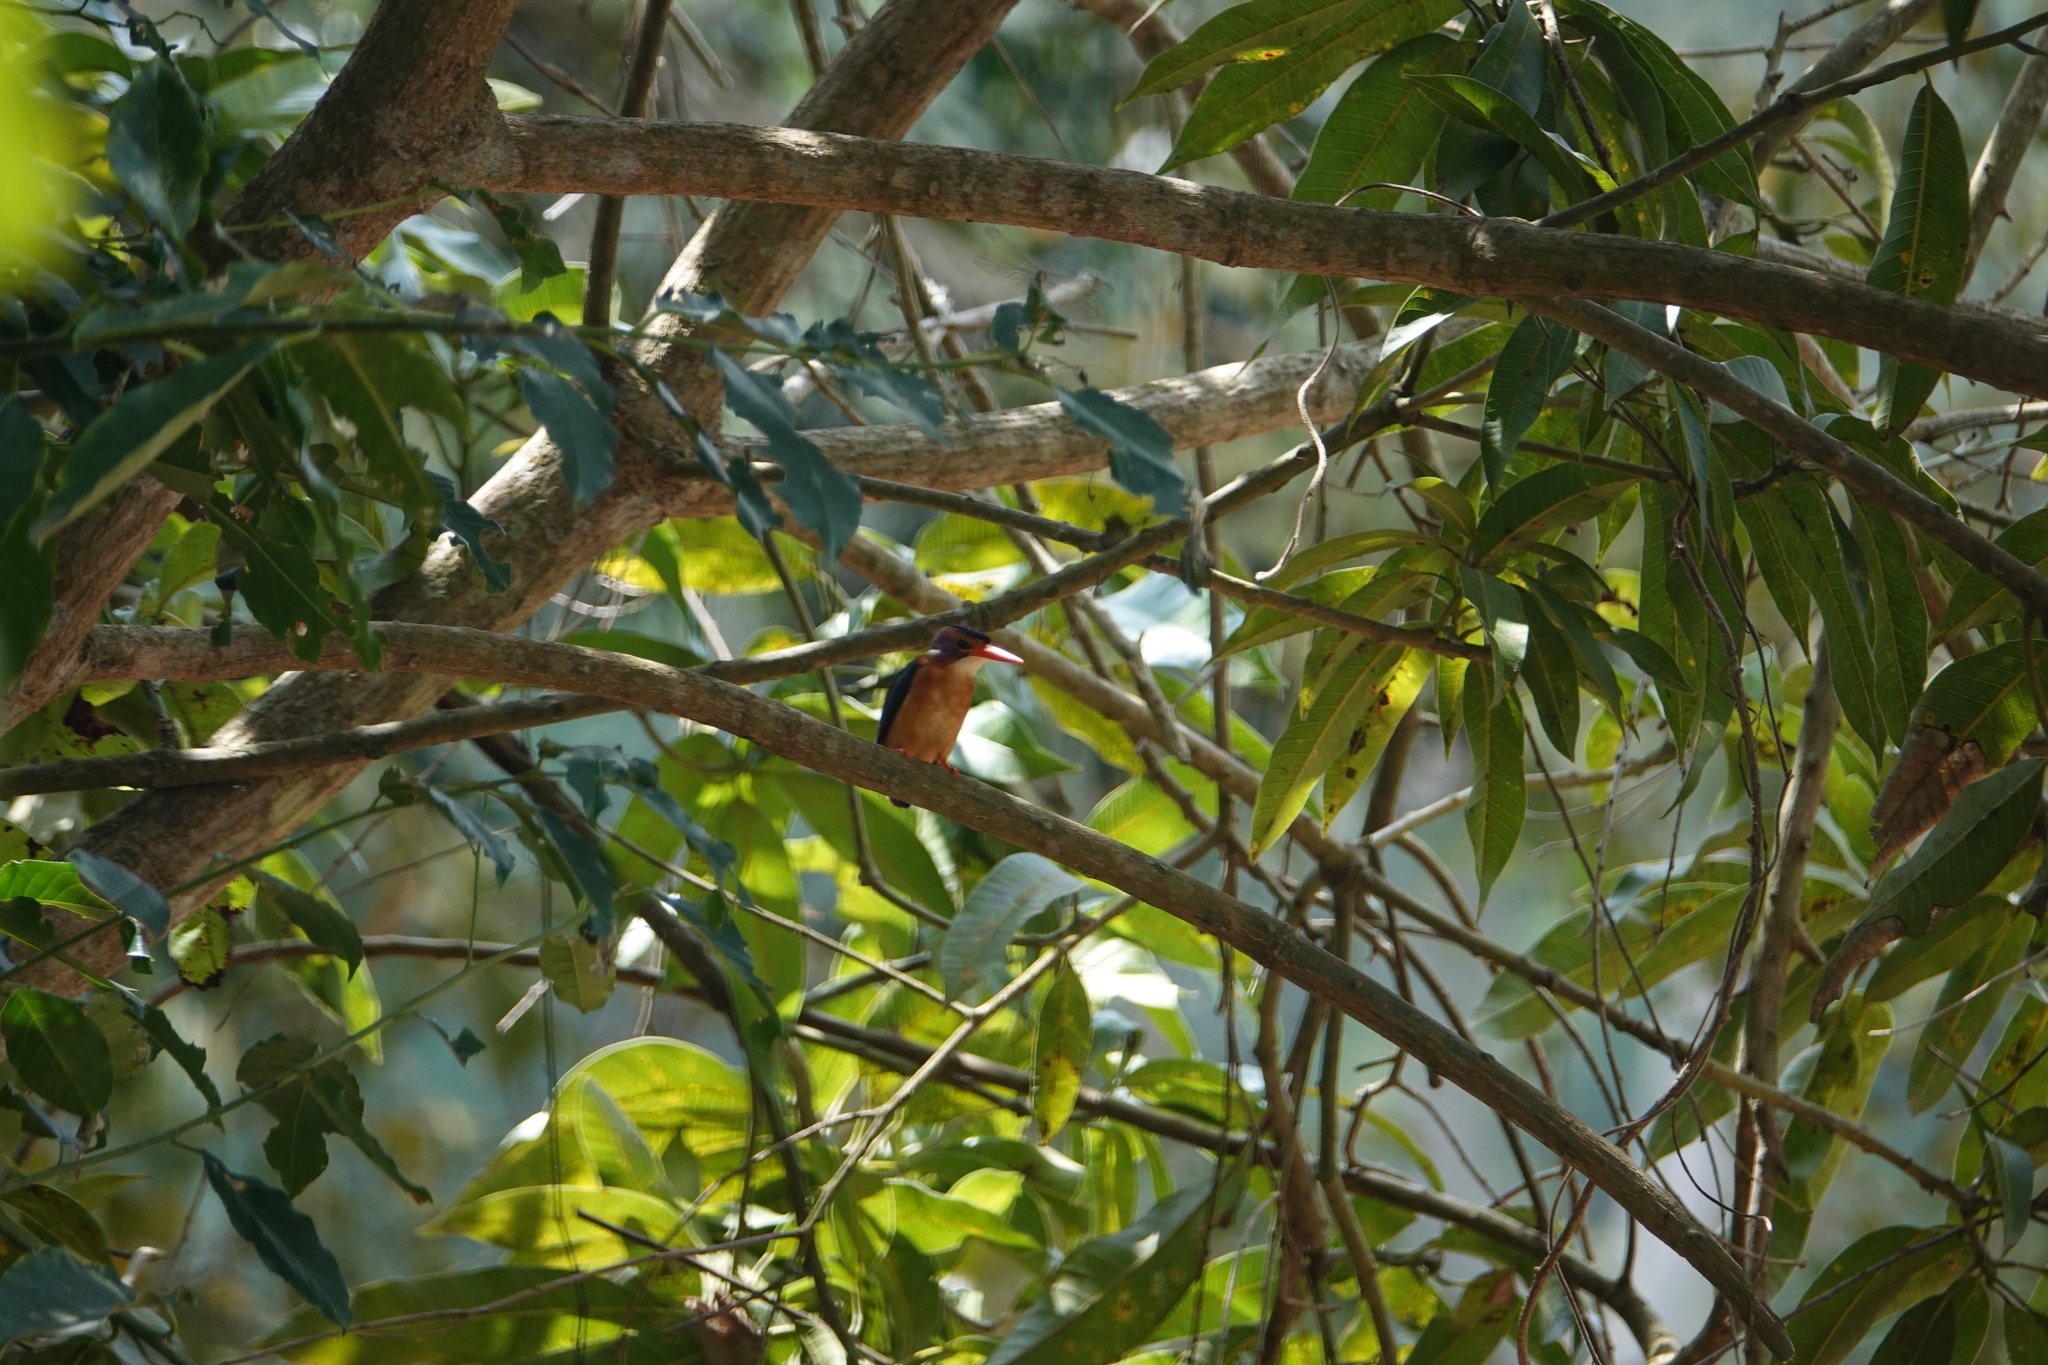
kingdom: Animalia
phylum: Chordata
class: Aves
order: Coraciiformes
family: Alcedinidae
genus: Ispidina
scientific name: Ispidina picta
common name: African pygmy-kingfisher
